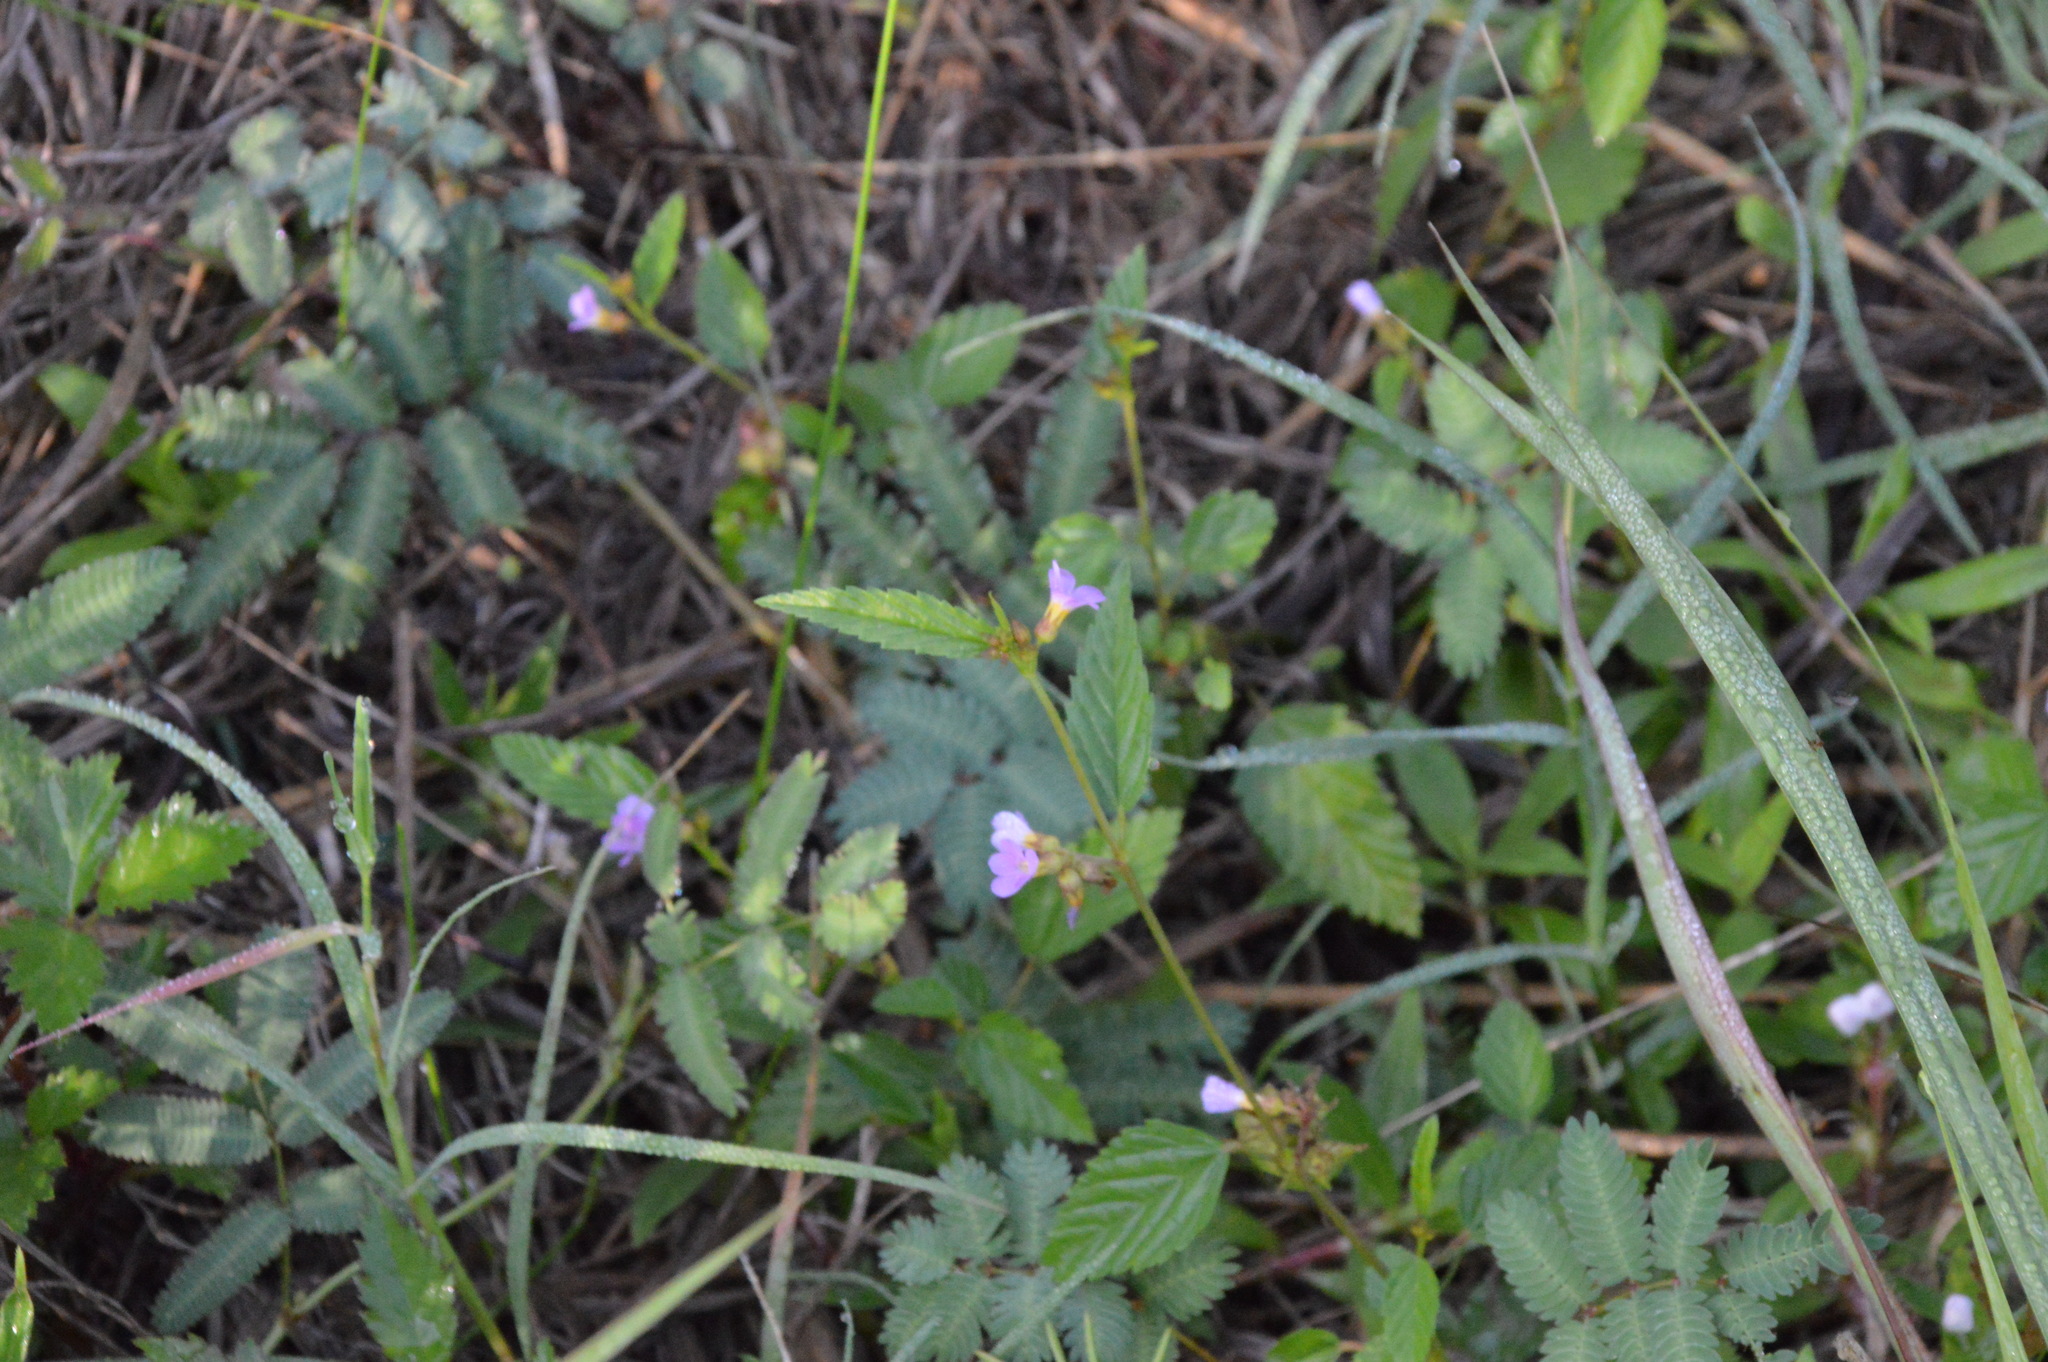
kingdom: Plantae
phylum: Tracheophyta
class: Magnoliopsida
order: Malvales
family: Malvaceae
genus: Melochia
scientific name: Melochia pyramidata
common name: Pyramidflower
